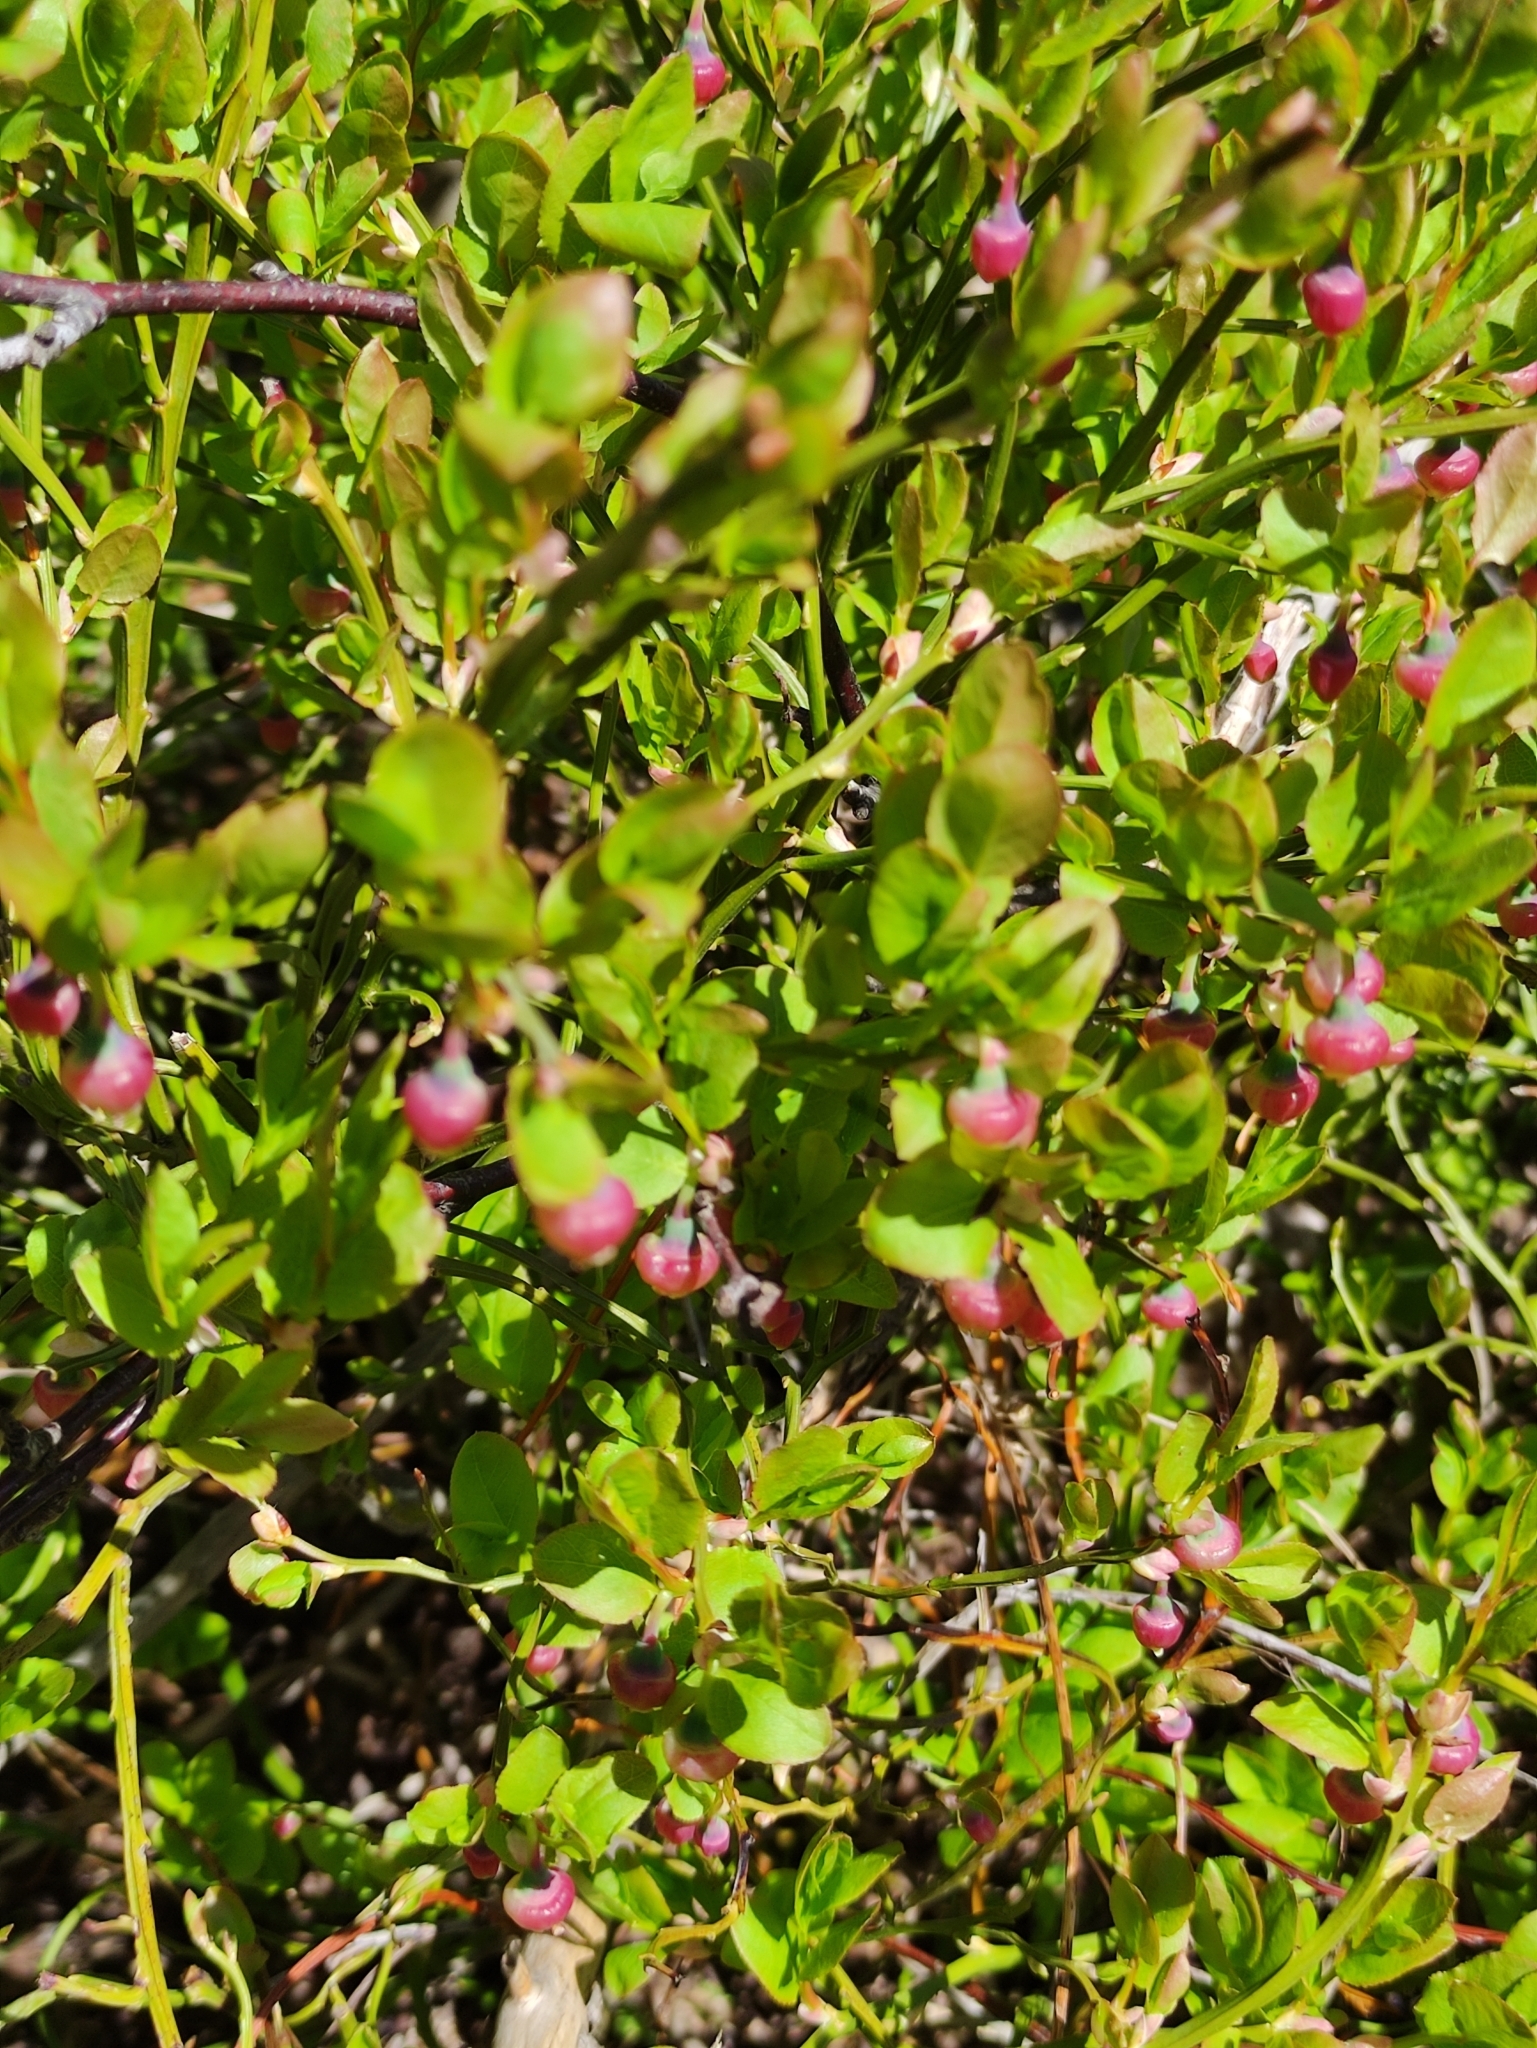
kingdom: Plantae
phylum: Tracheophyta
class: Magnoliopsida
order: Ericales
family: Ericaceae
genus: Vaccinium
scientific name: Vaccinium myrtillus
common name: Bilberry
